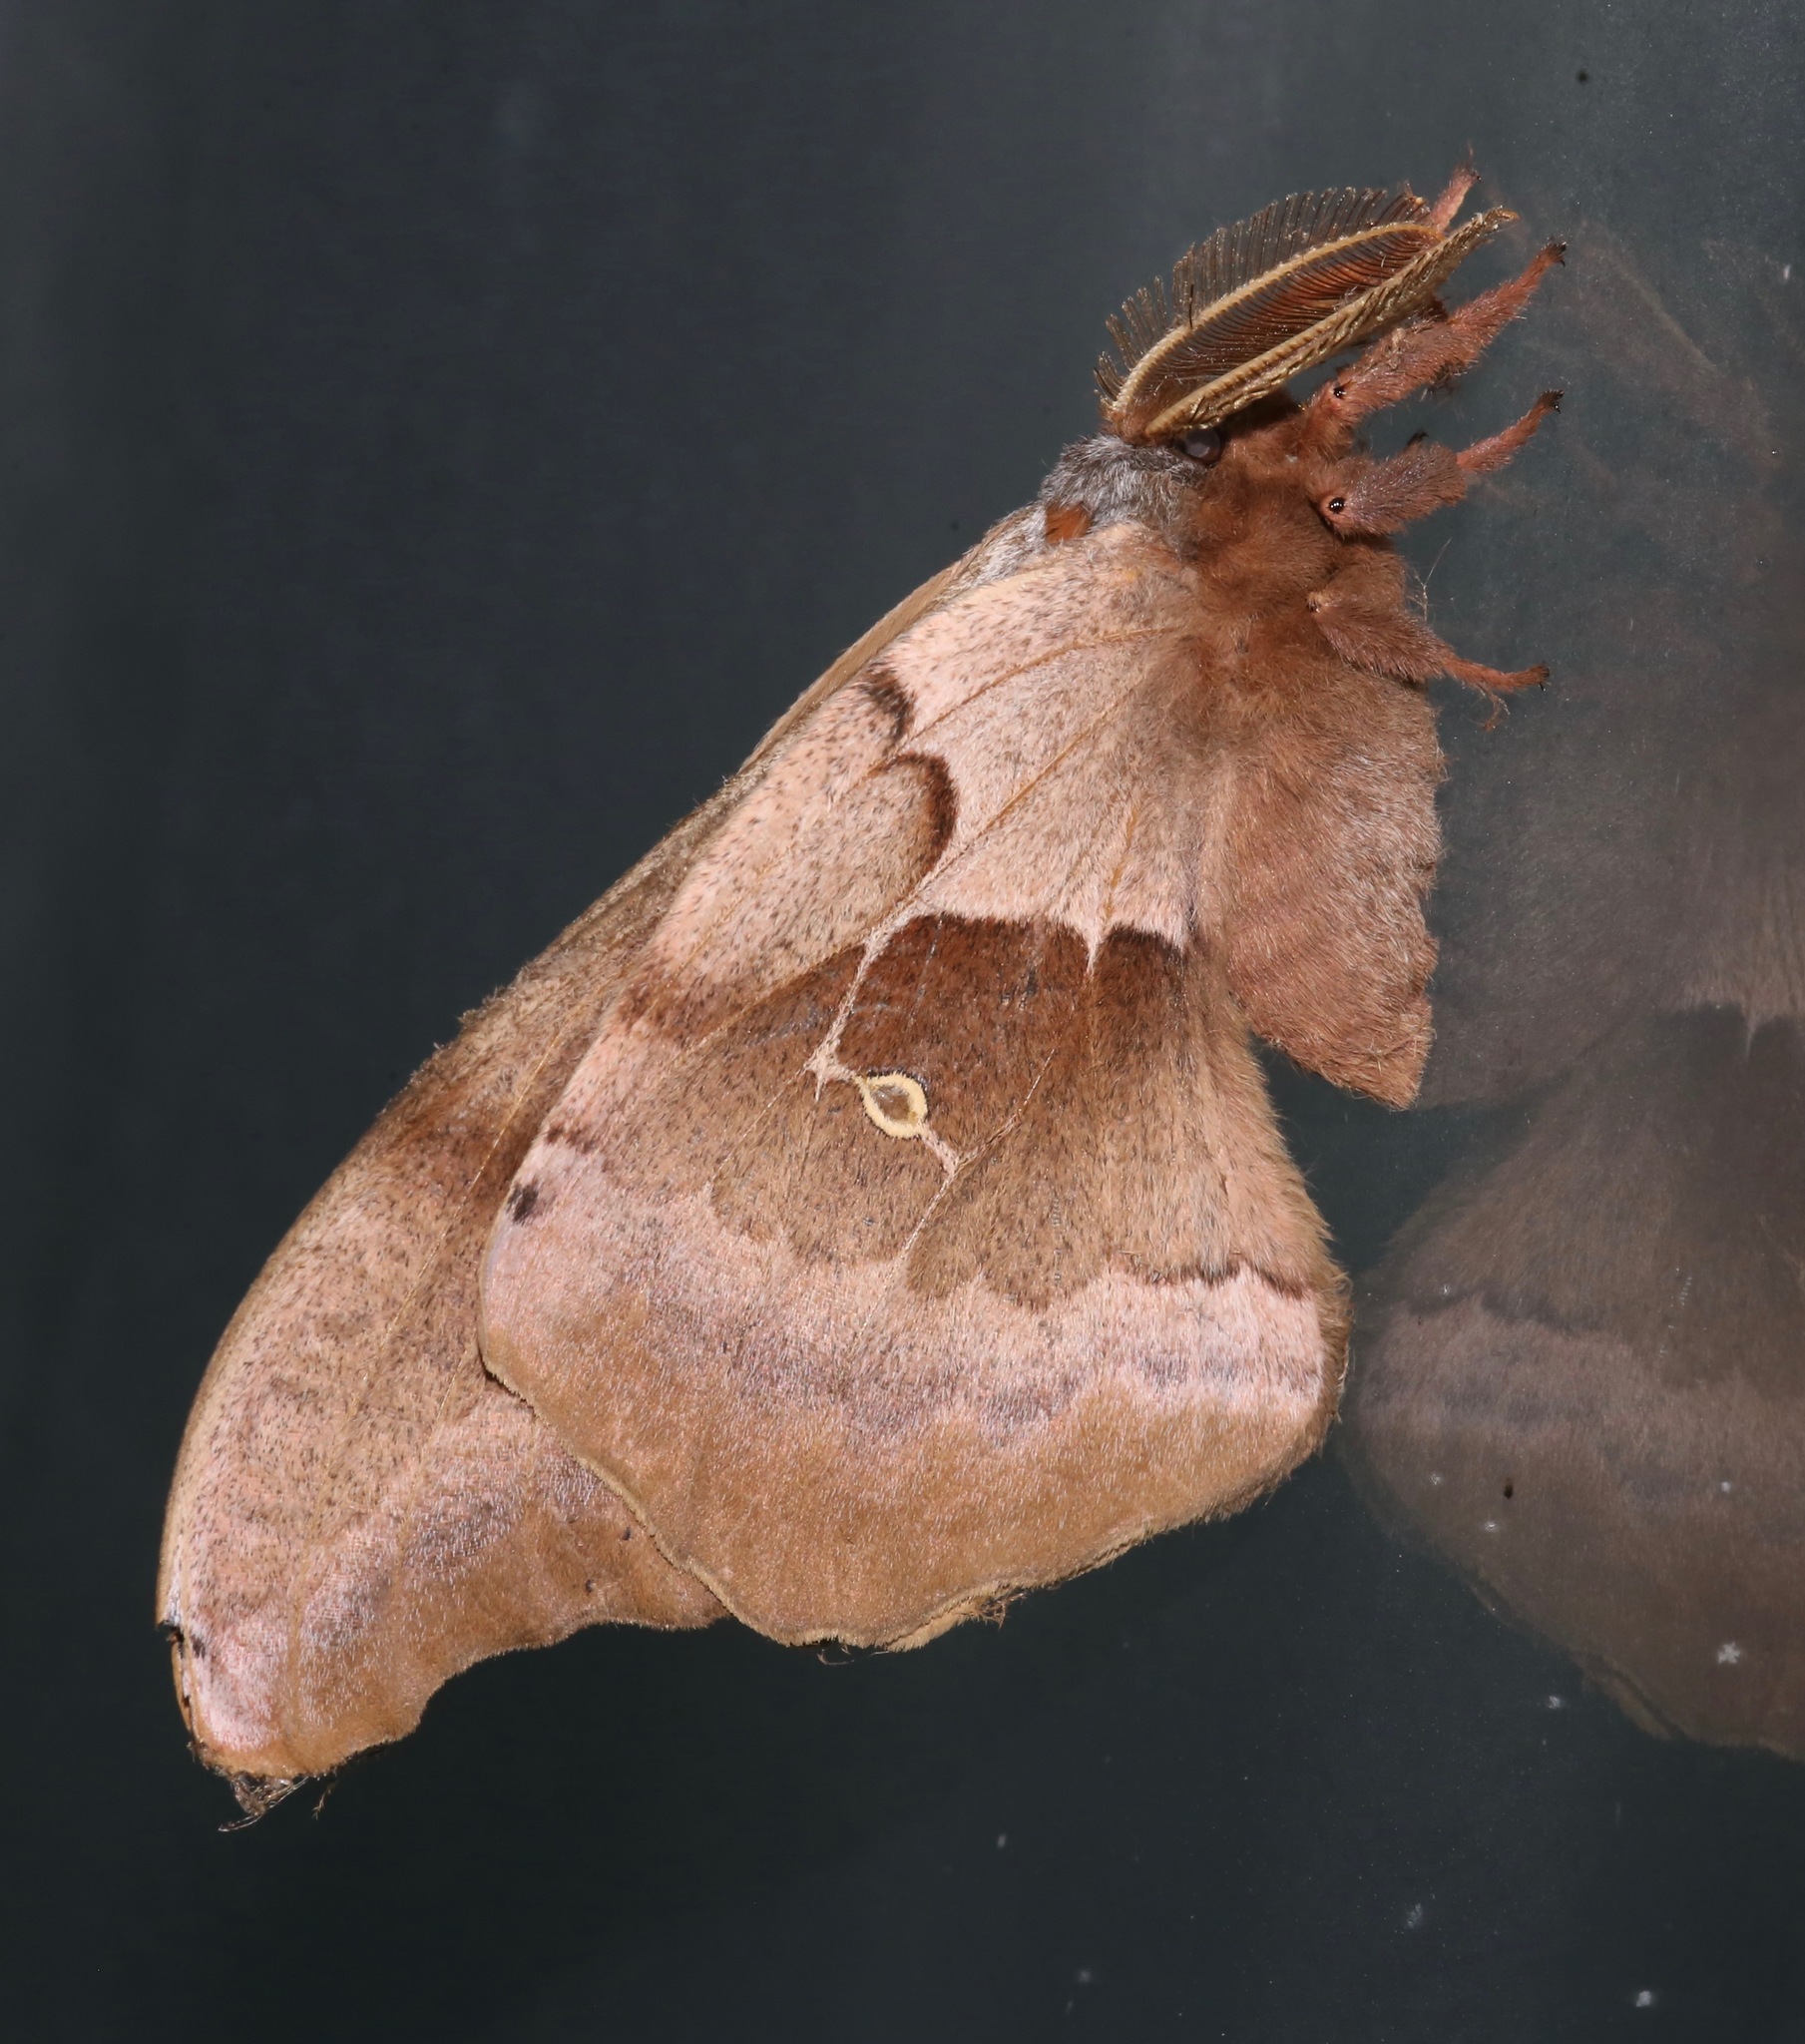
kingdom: Animalia
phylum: Arthropoda
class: Insecta
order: Lepidoptera
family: Saturniidae
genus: Antheraea
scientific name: Antheraea polyphemus
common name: Polyphemus moth
